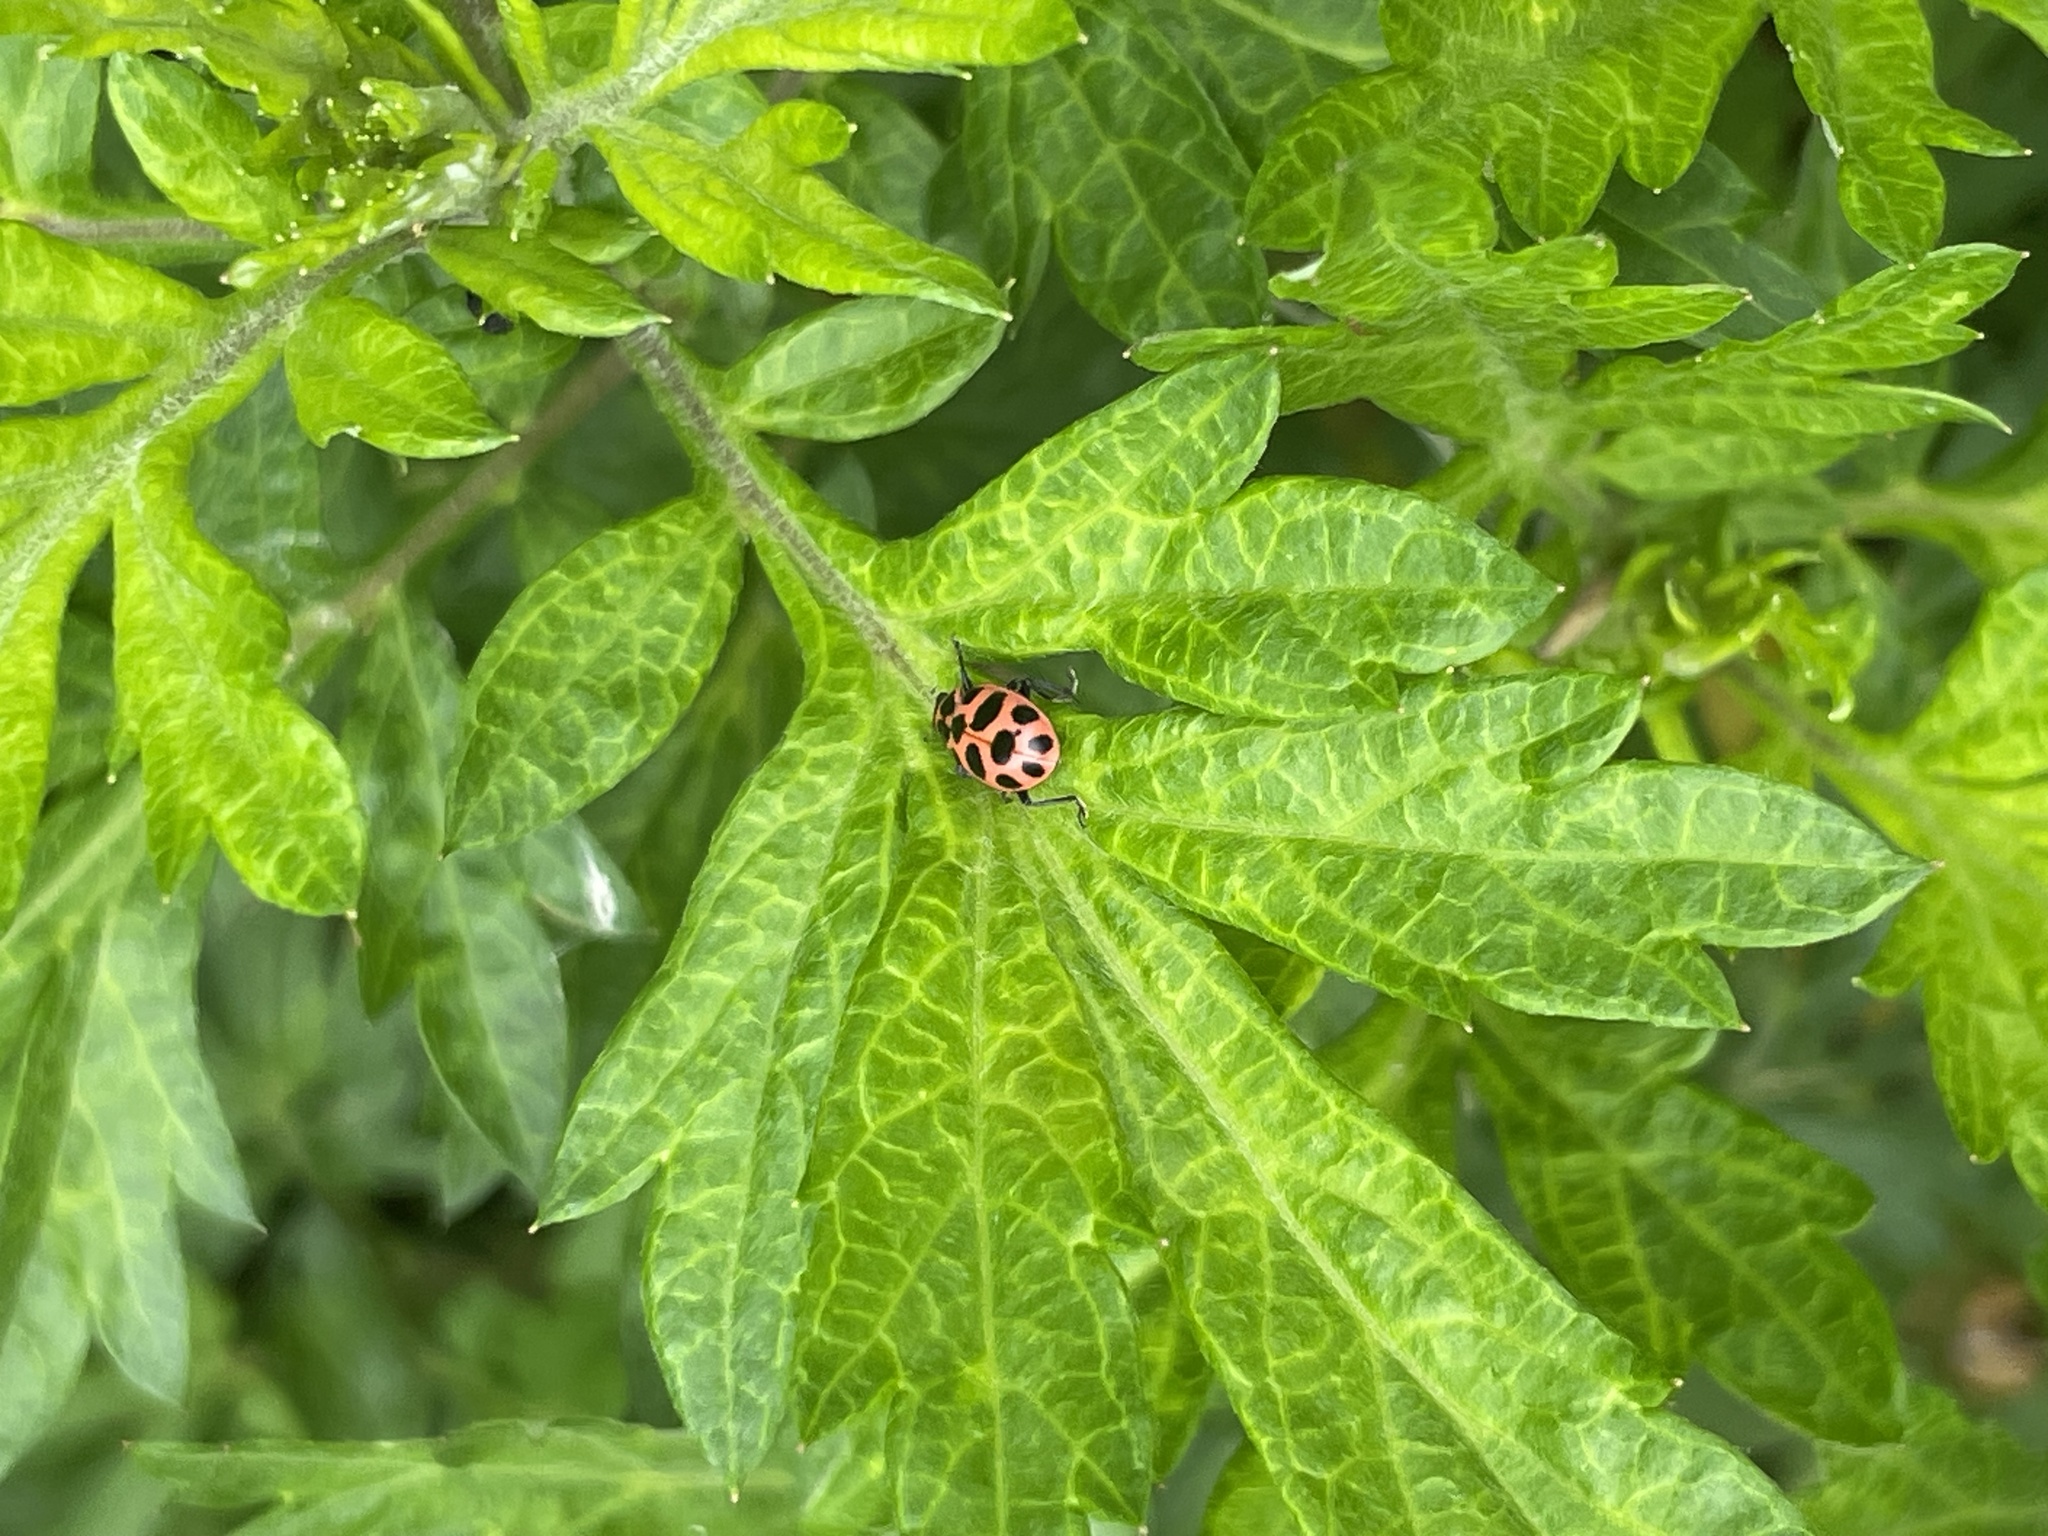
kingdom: Animalia
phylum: Arthropoda
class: Insecta
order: Coleoptera
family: Coccinellidae
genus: Coleomegilla
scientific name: Coleomegilla maculata
